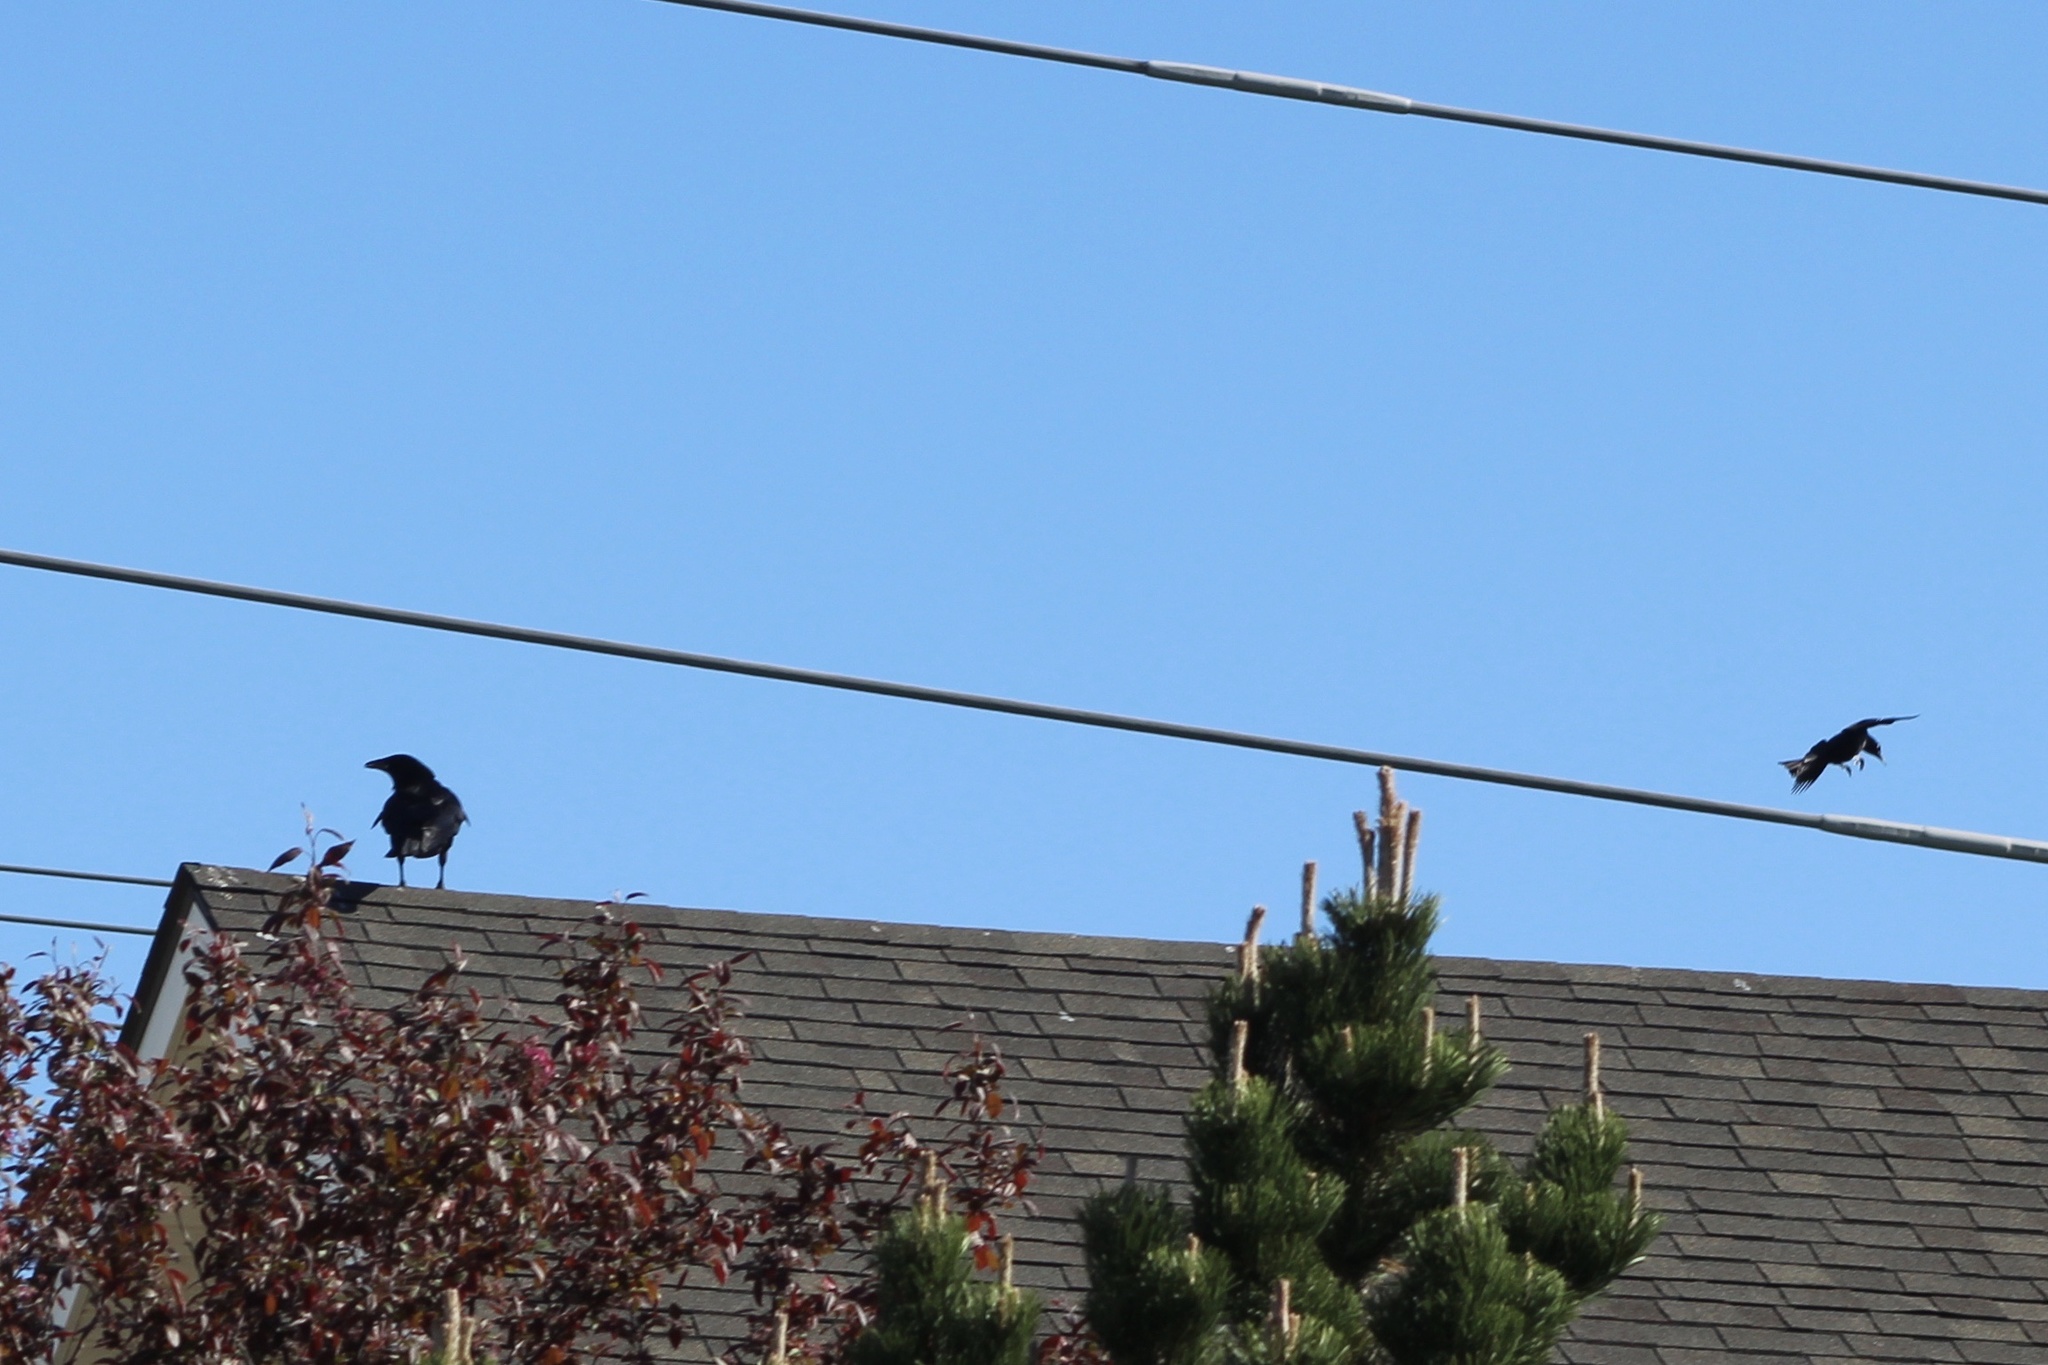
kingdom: Animalia
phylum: Chordata
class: Aves
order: Passeriformes
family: Corvidae
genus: Corvus
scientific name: Corvus brachyrhynchos
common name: American crow
